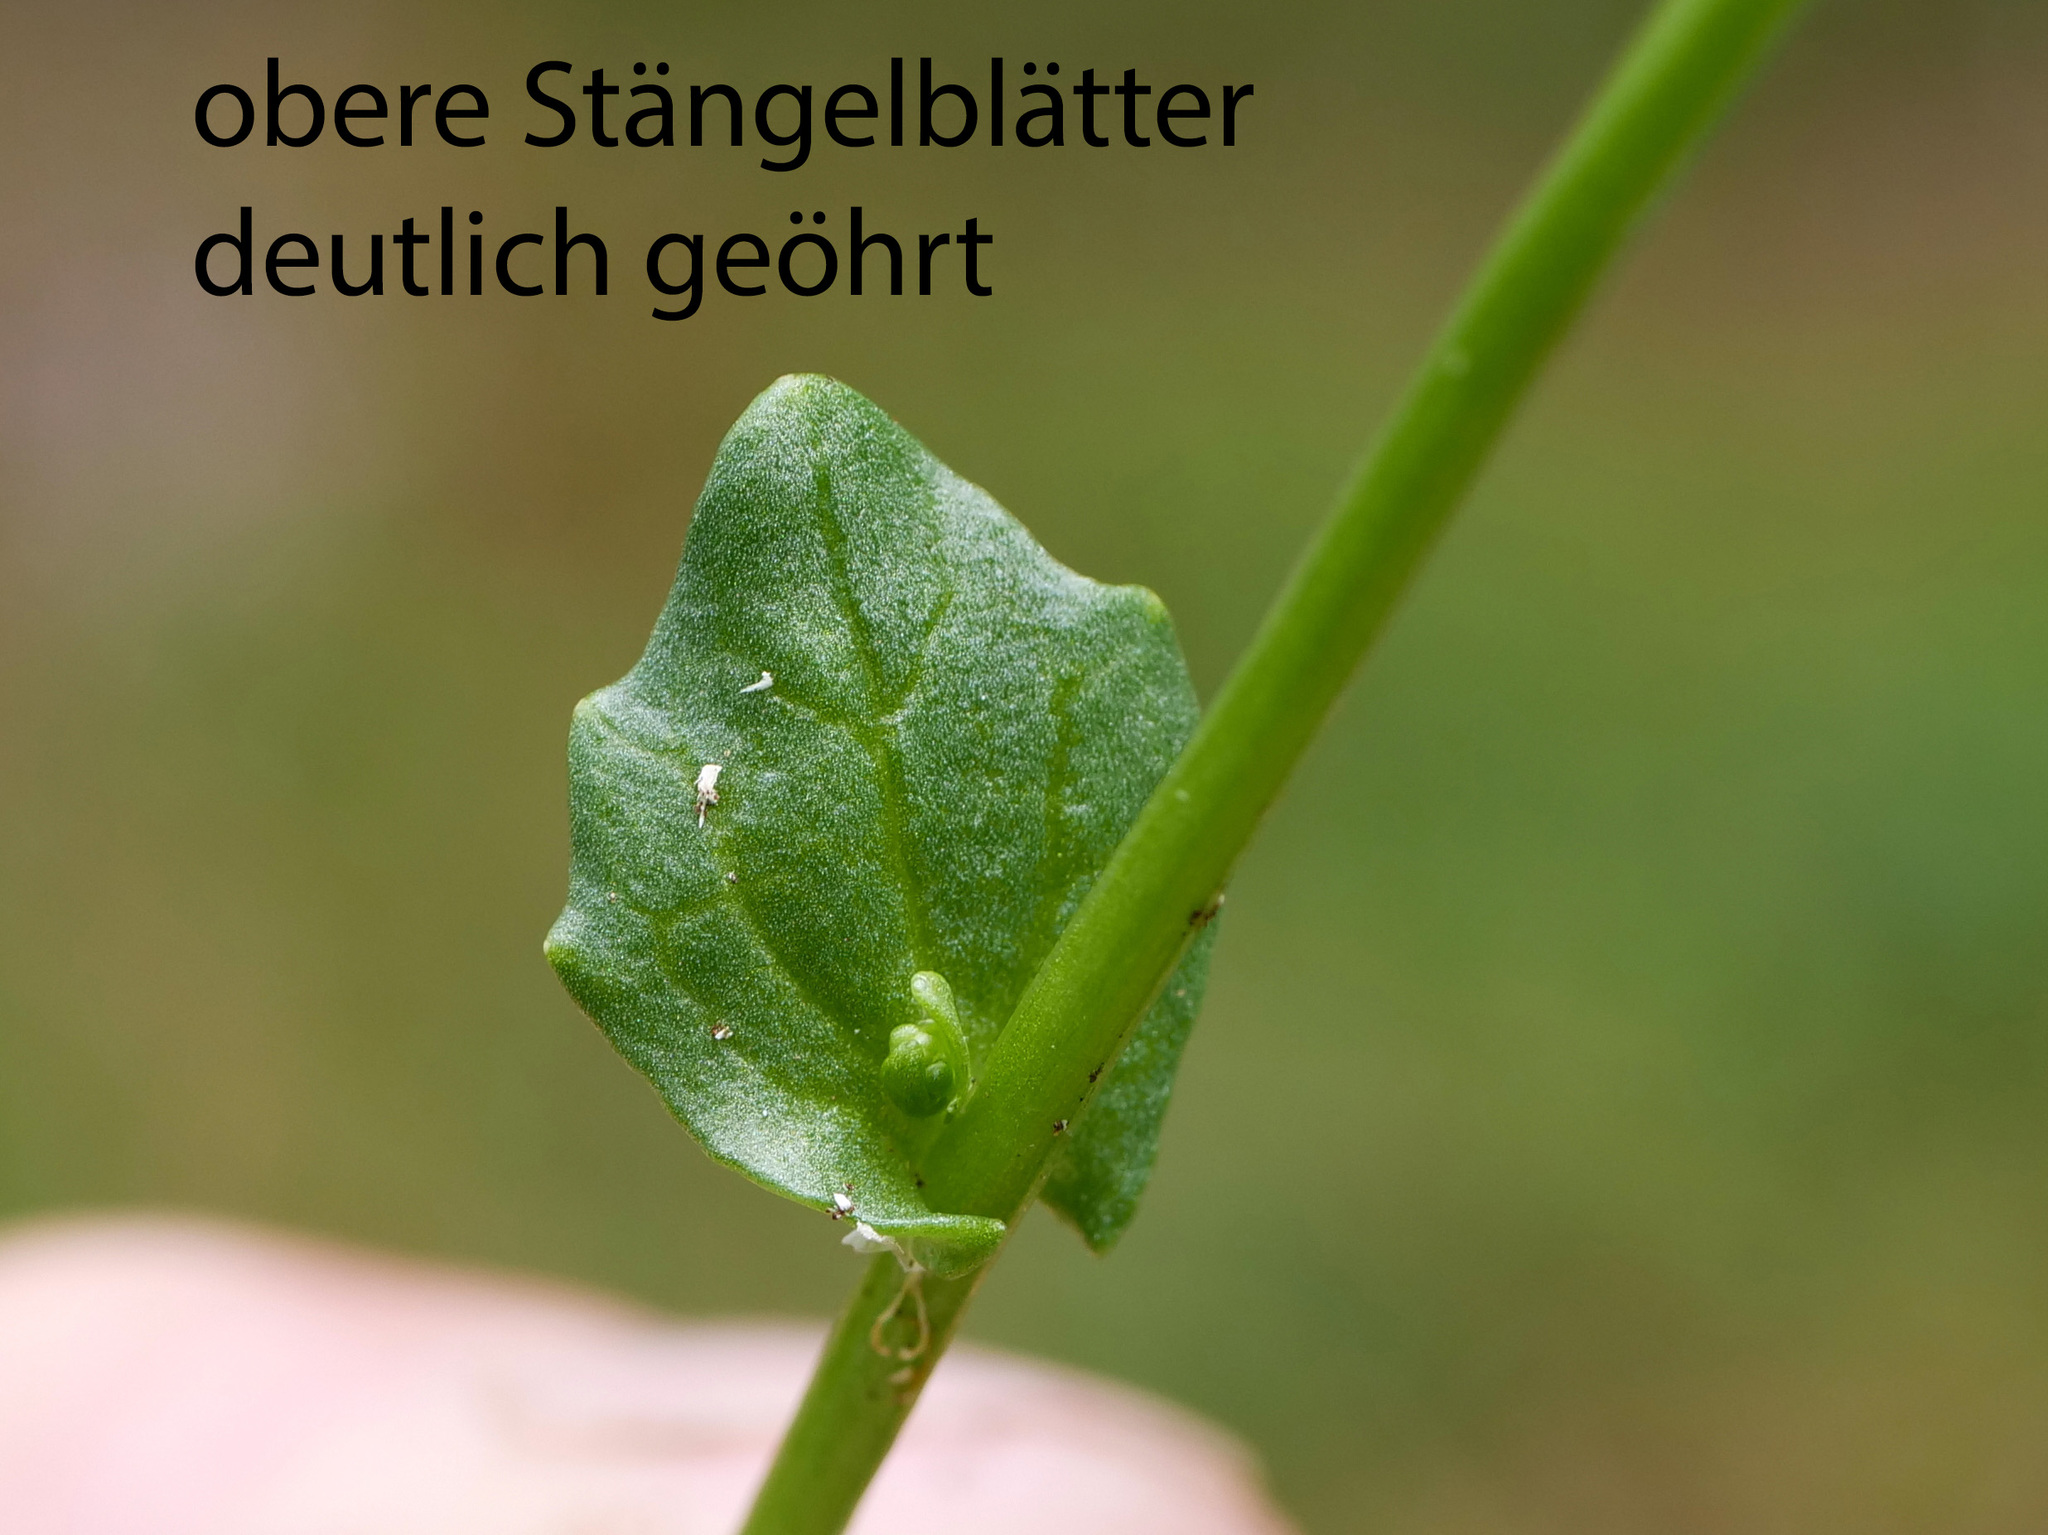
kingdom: Plantae
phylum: Tracheophyta
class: Magnoliopsida
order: Brassicales
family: Brassicaceae
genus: Cochlearia
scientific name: Cochlearia pyrenaica
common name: Upland scurvy-grass
